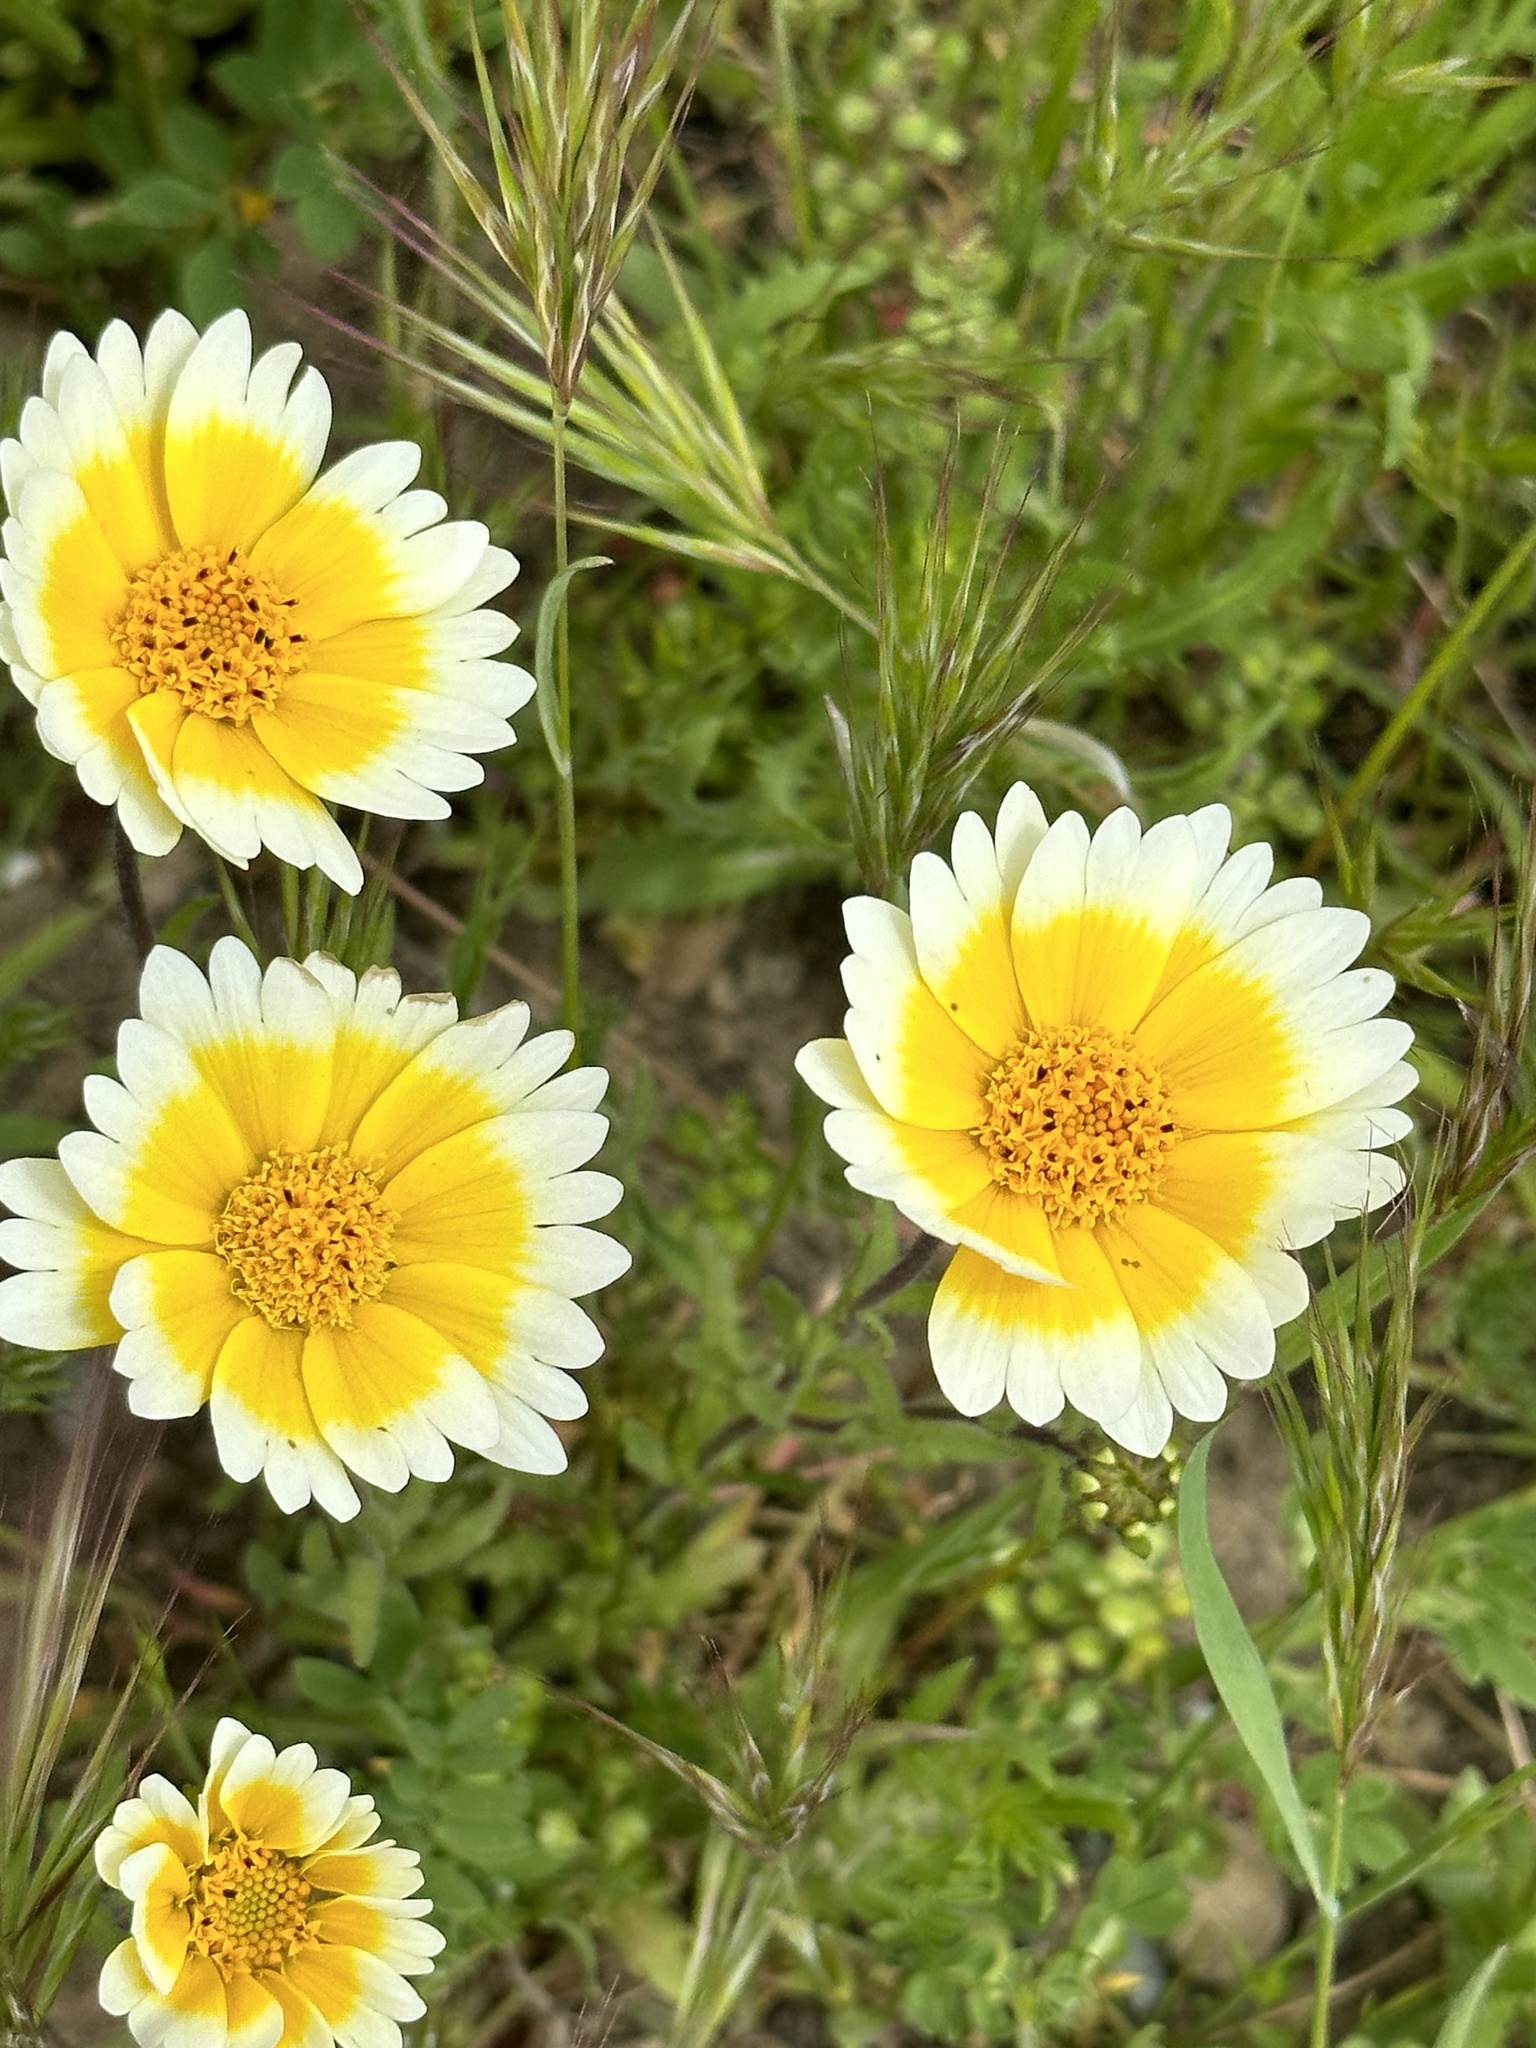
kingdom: Plantae
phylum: Tracheophyta
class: Magnoliopsida
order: Asterales
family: Asteraceae
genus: Layia
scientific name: Layia platyglossa
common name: Tidy-tips
